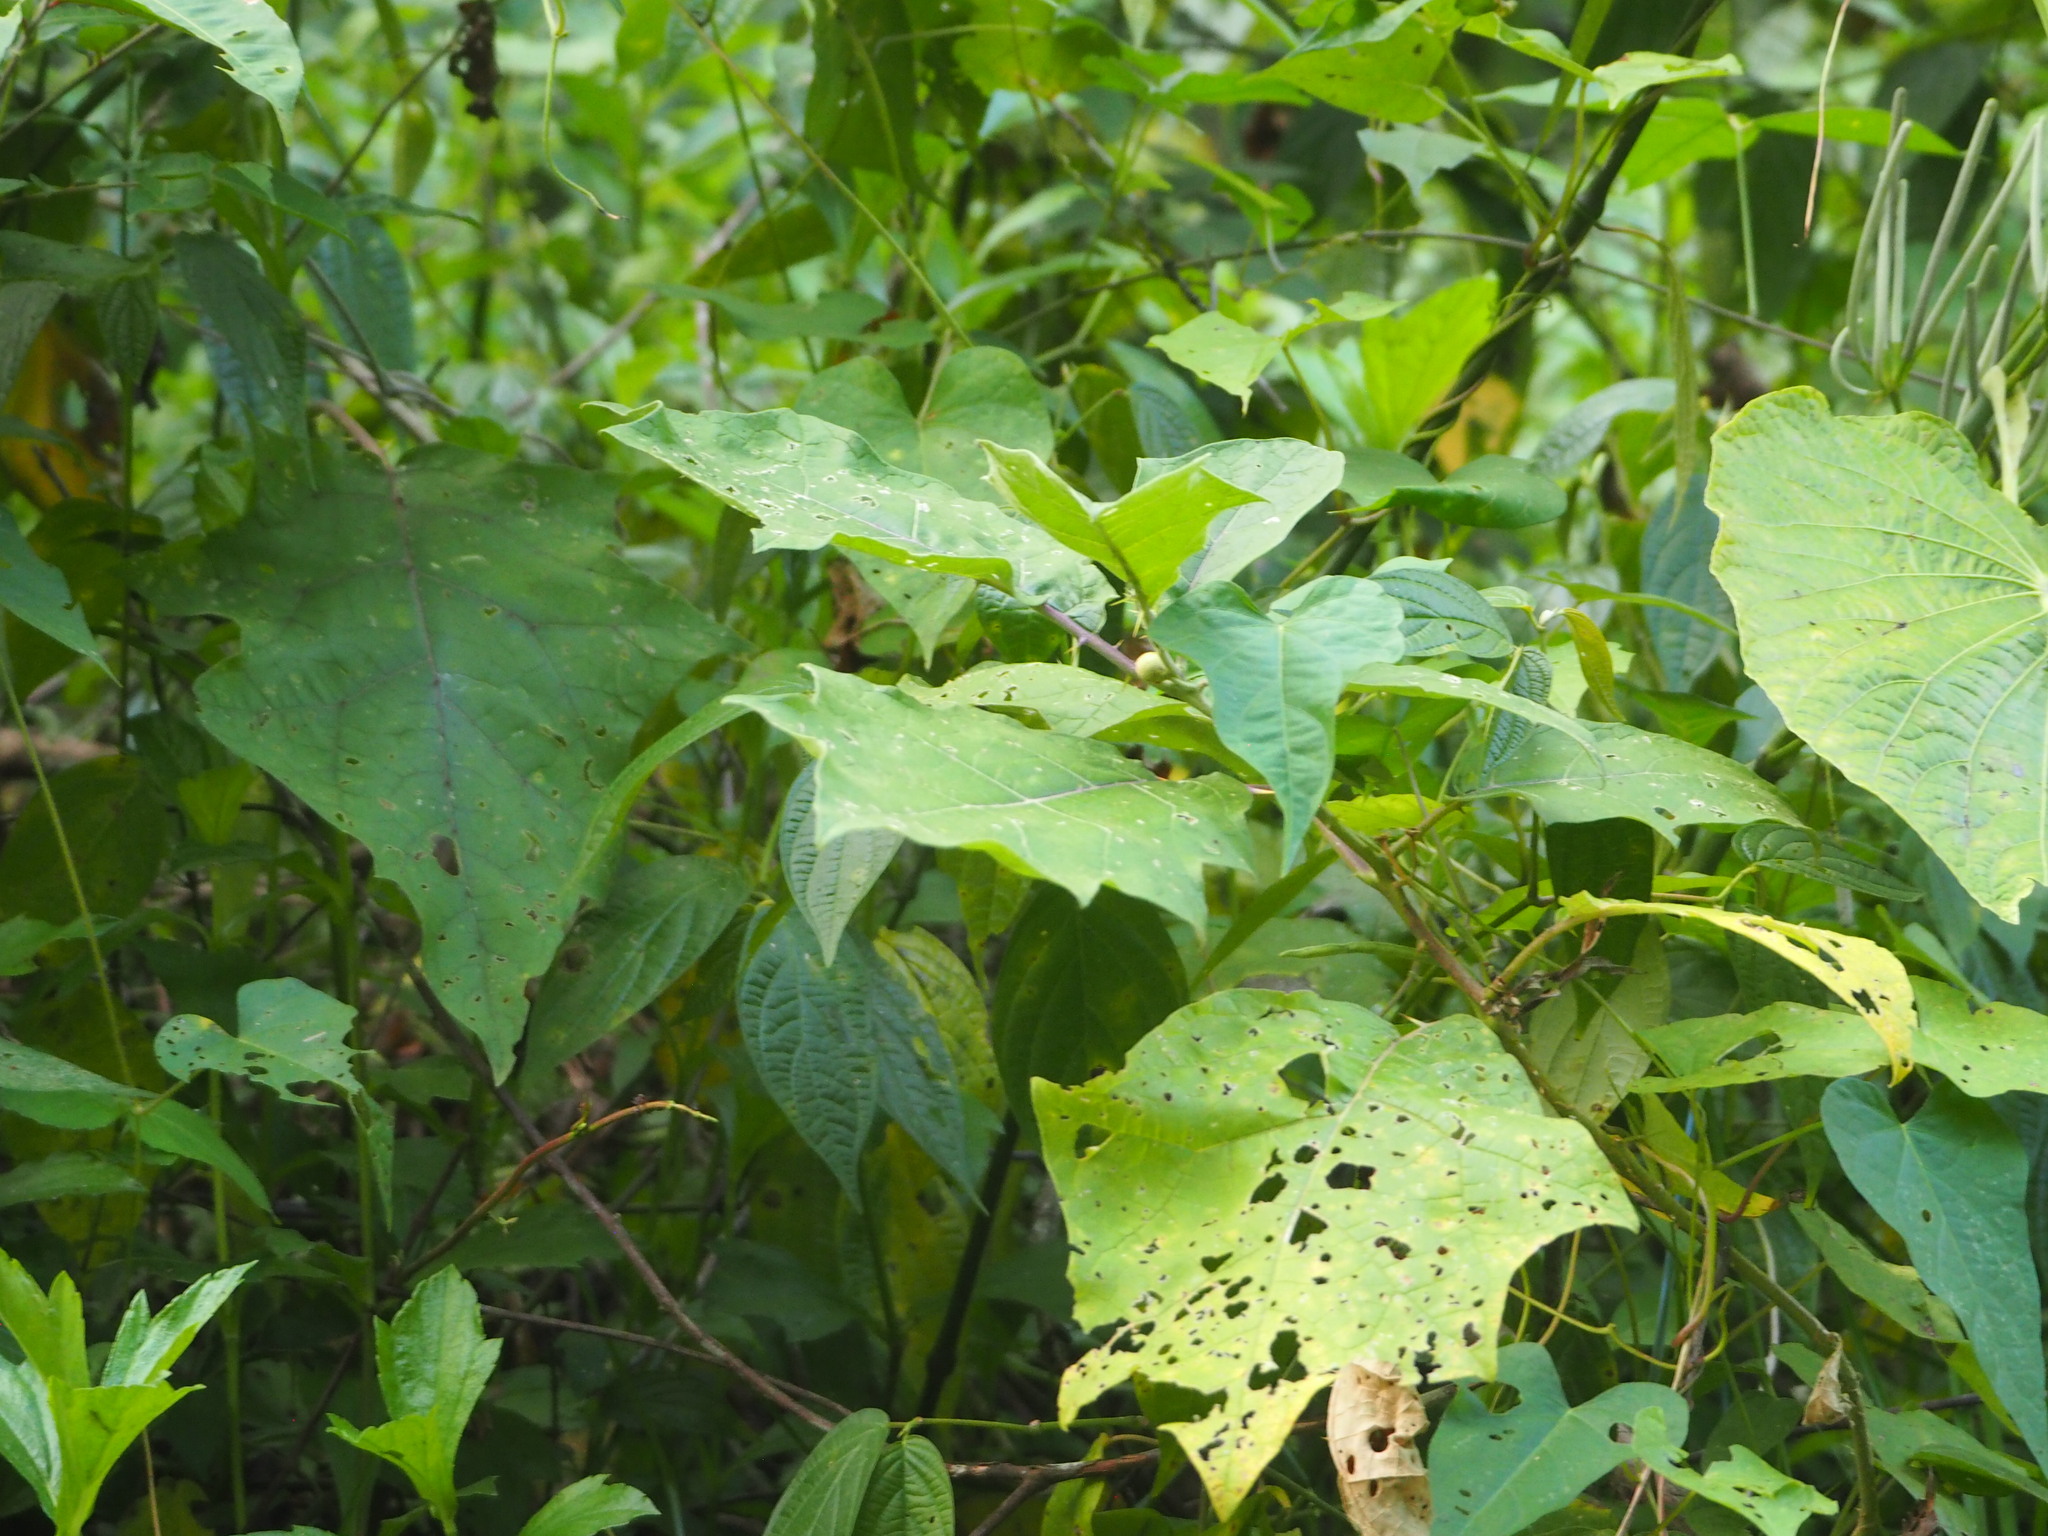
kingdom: Plantae
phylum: Tracheophyta
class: Magnoliopsida
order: Solanales
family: Solanaceae
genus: Solanum
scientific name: Solanum
